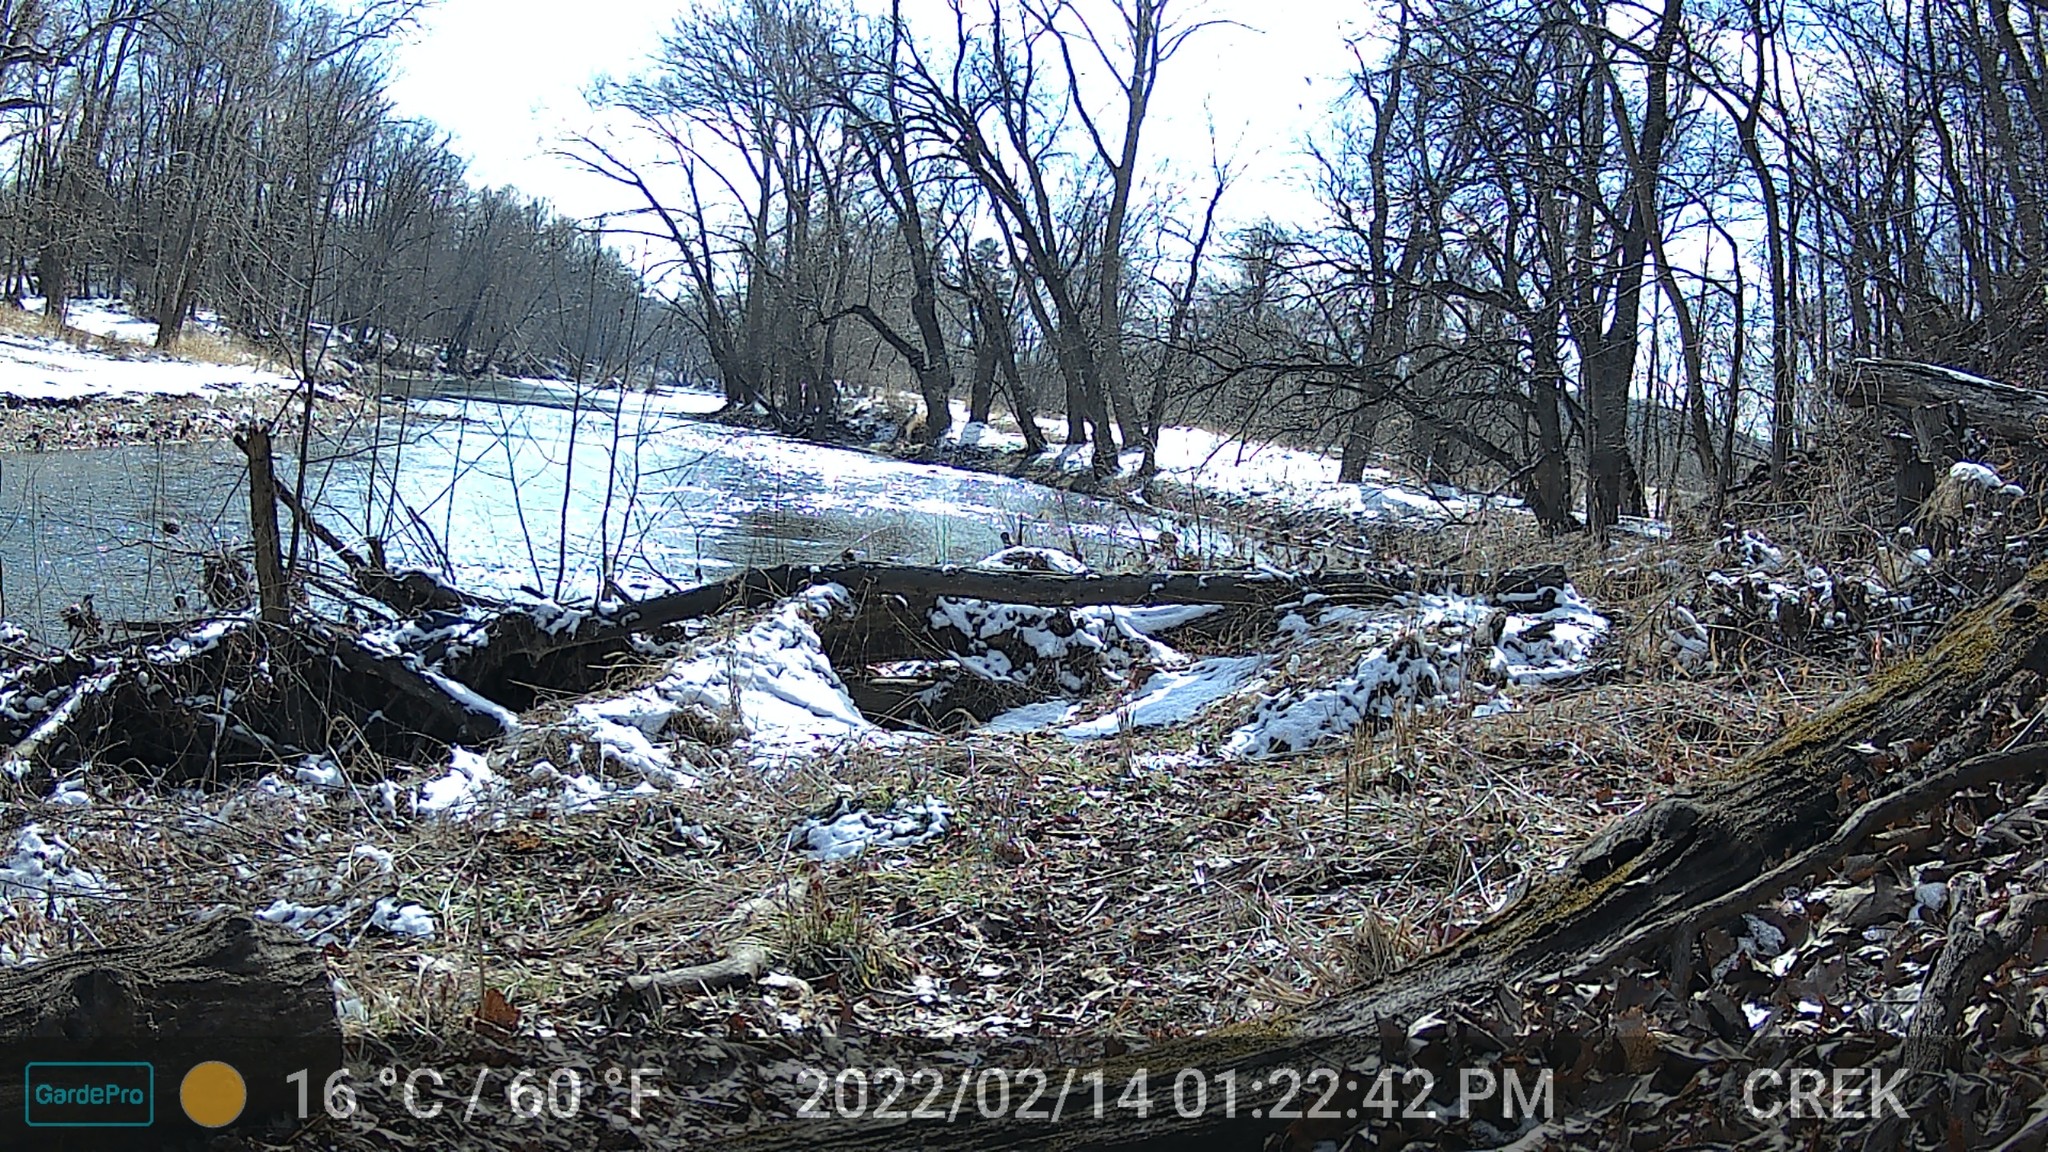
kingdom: Animalia
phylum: Chordata
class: Mammalia
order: Rodentia
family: Sciuridae
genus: Sciurus
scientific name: Sciurus carolinensis
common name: Eastern gray squirrel
